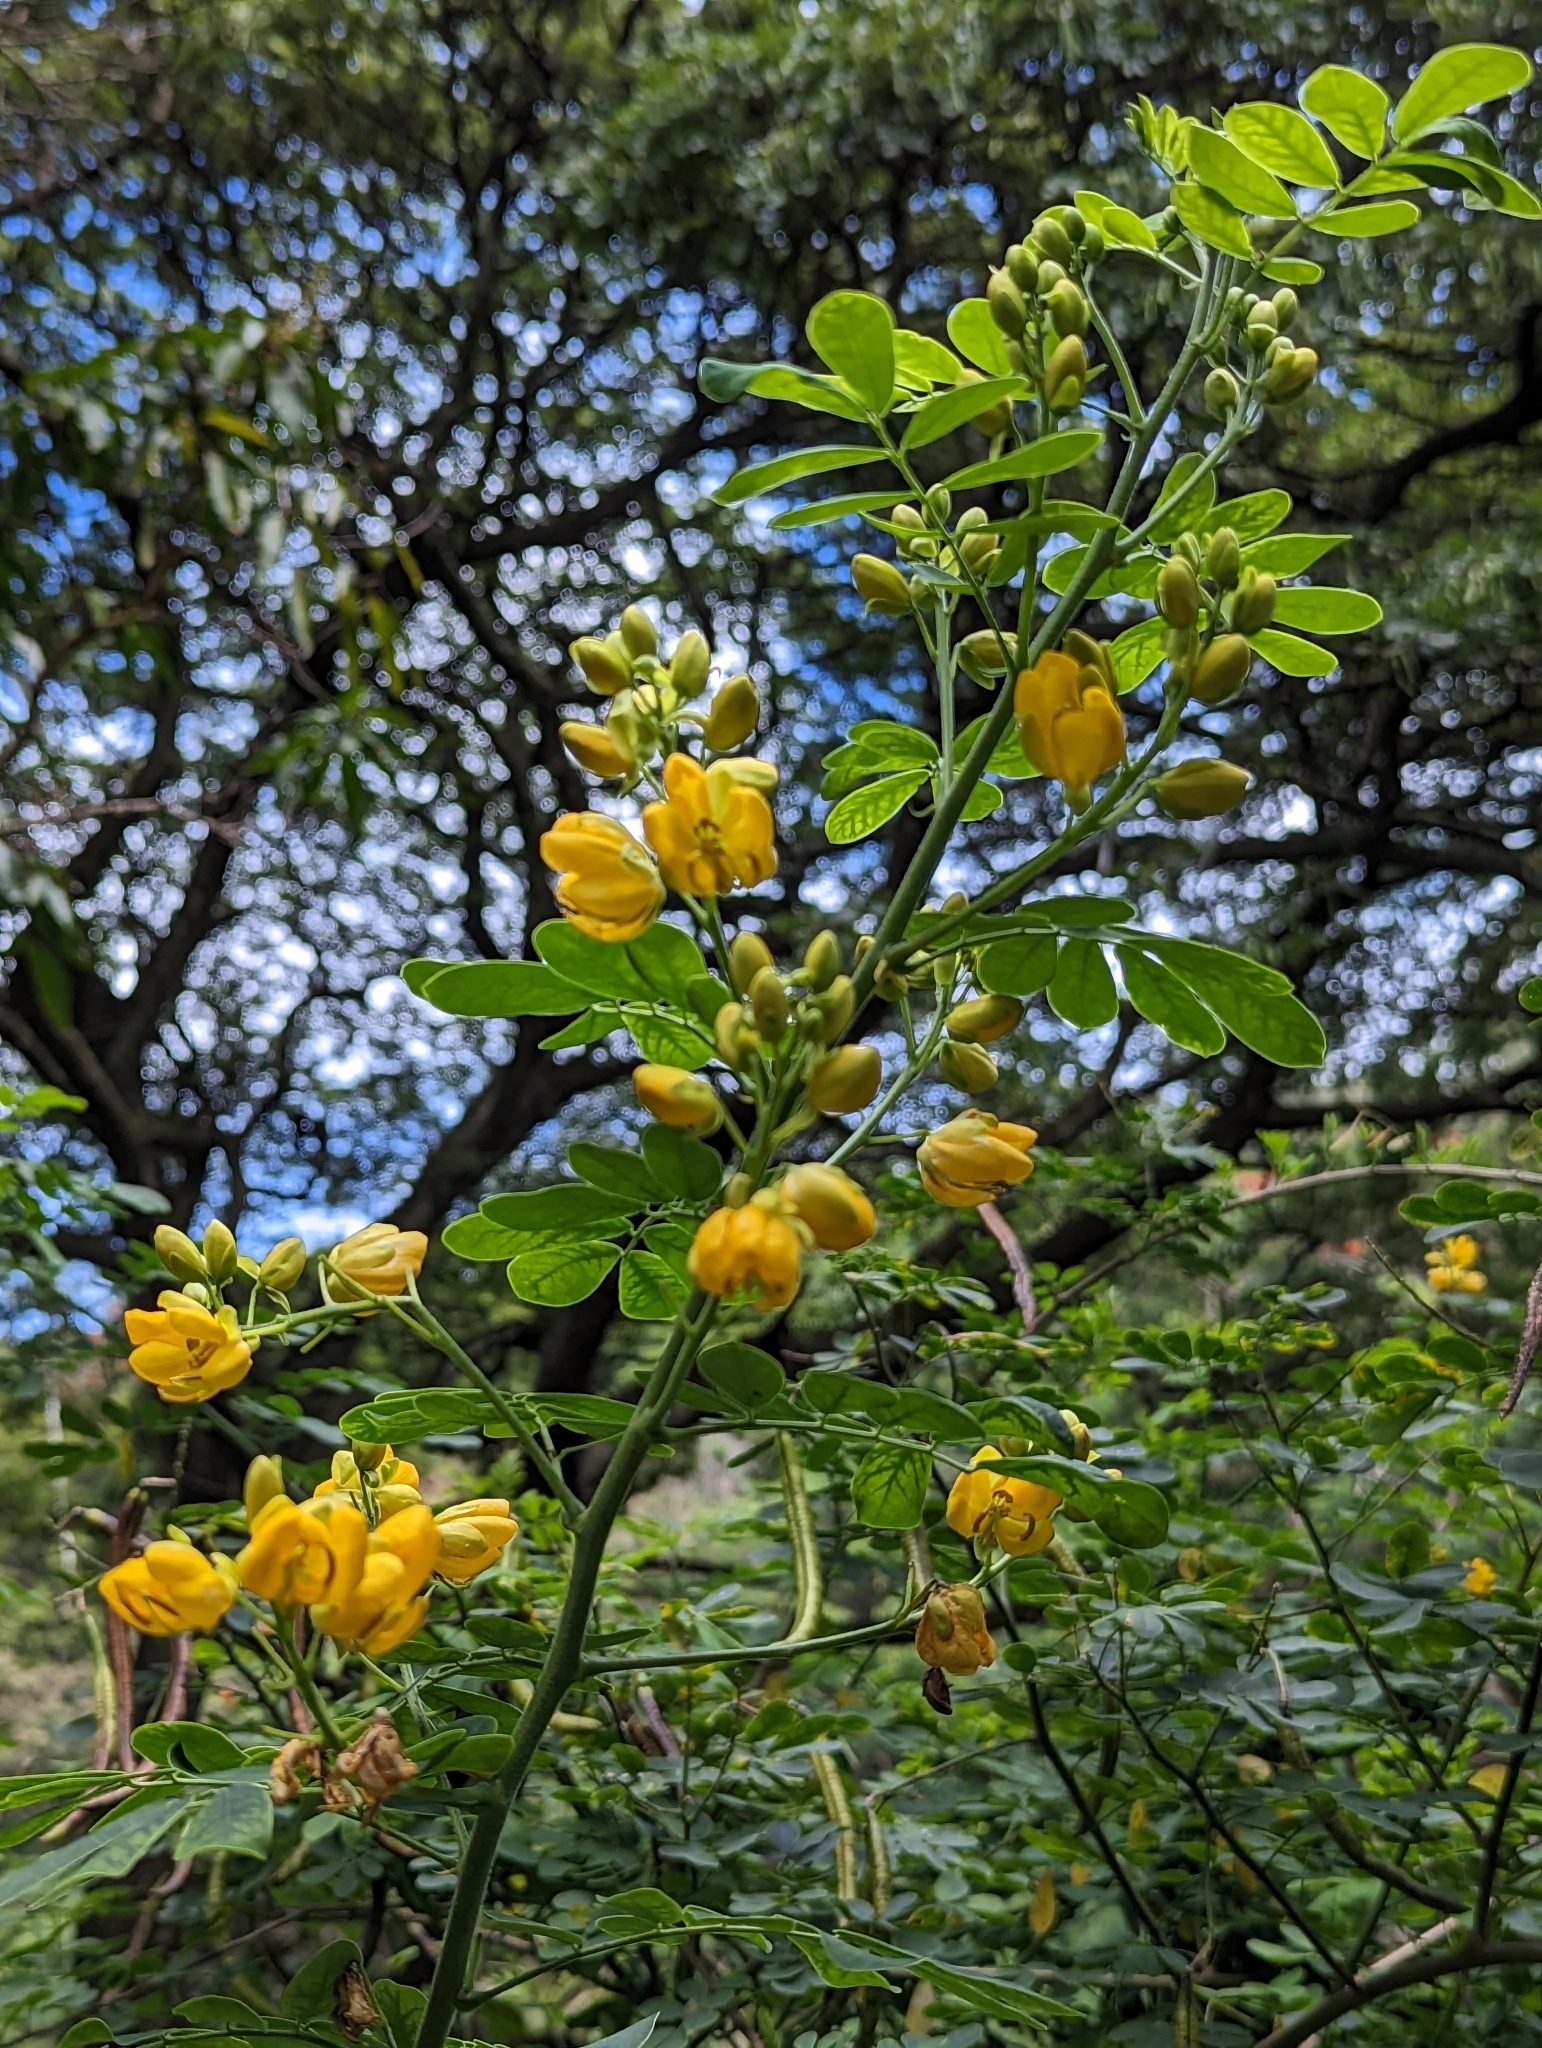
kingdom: Plantae
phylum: Tracheophyta
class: Magnoliopsida
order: Fabales
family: Fabaceae
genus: Senna
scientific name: Senna pendula
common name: Easter cassia
